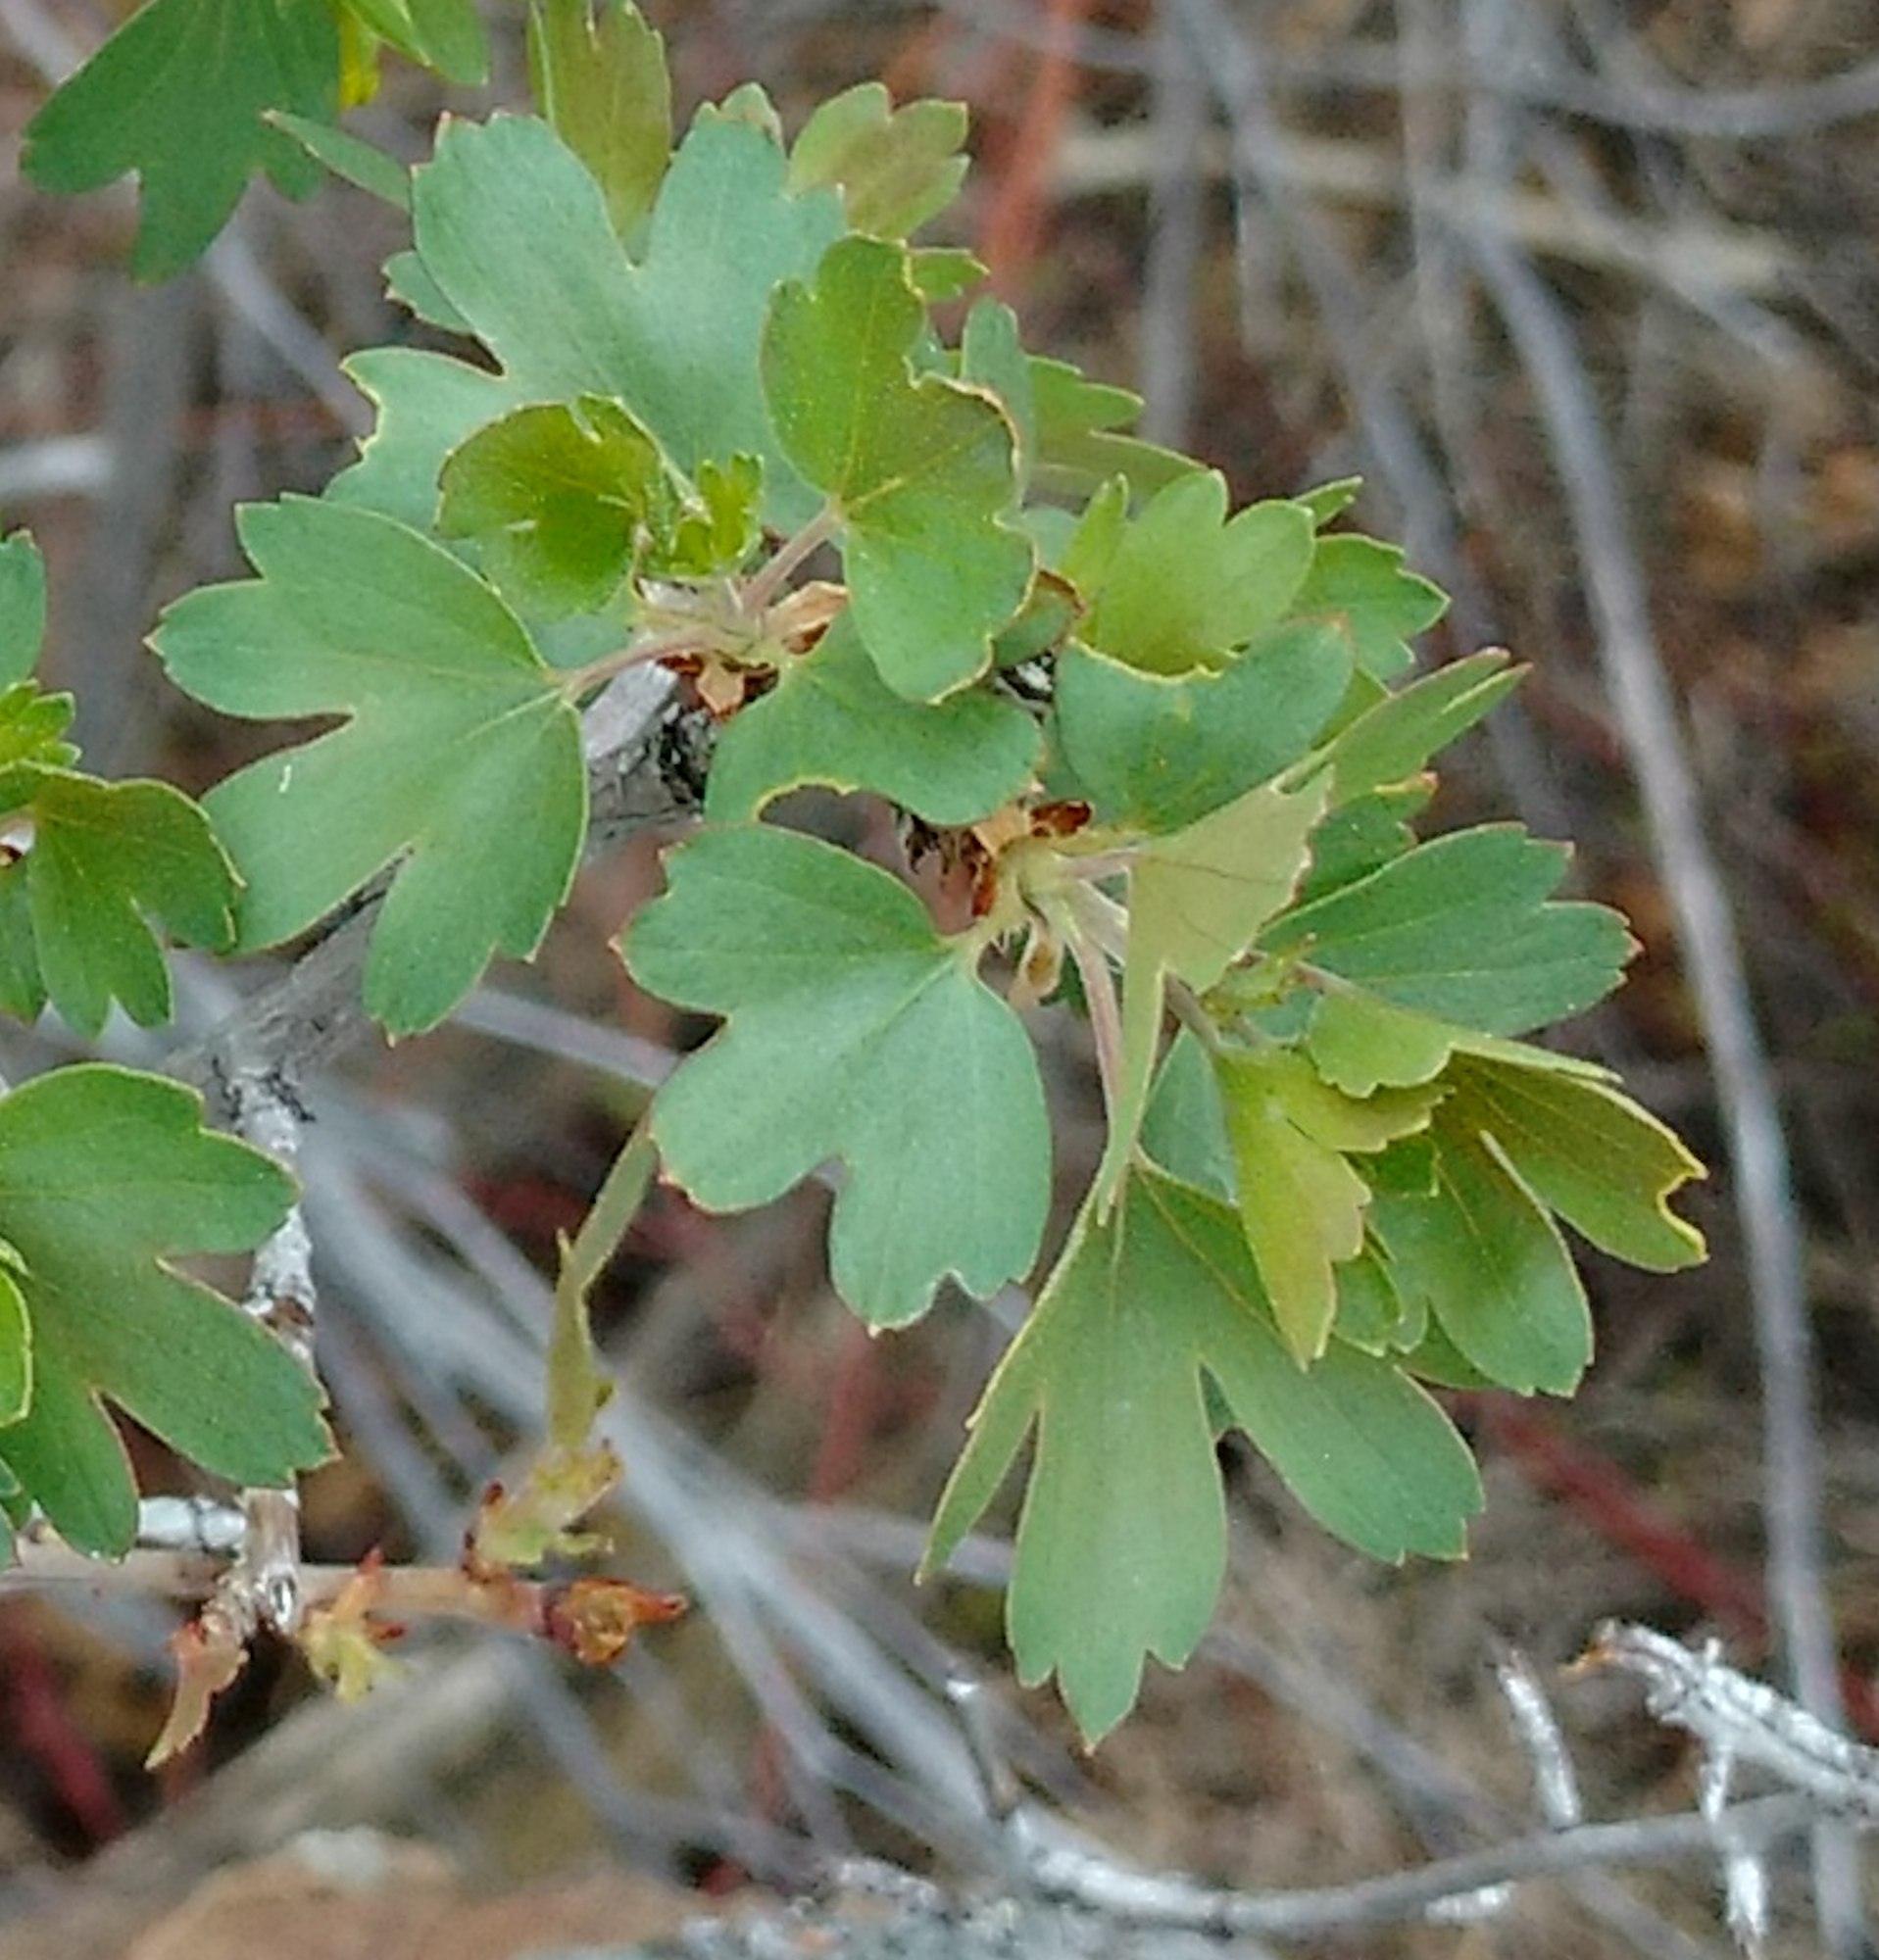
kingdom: Plantae
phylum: Tracheophyta
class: Magnoliopsida
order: Saxifragales
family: Grossulariaceae
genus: Ribes
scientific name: Ribes aureum
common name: Golden currant
